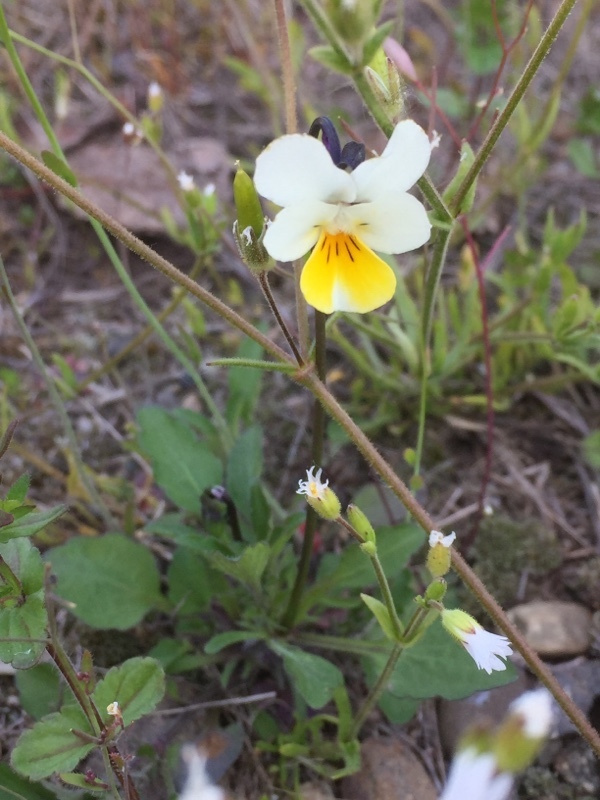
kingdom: Plantae
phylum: Tracheophyta
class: Magnoliopsida
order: Malpighiales
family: Violaceae
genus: Viola
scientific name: Viola arvensis
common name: Field pansy
